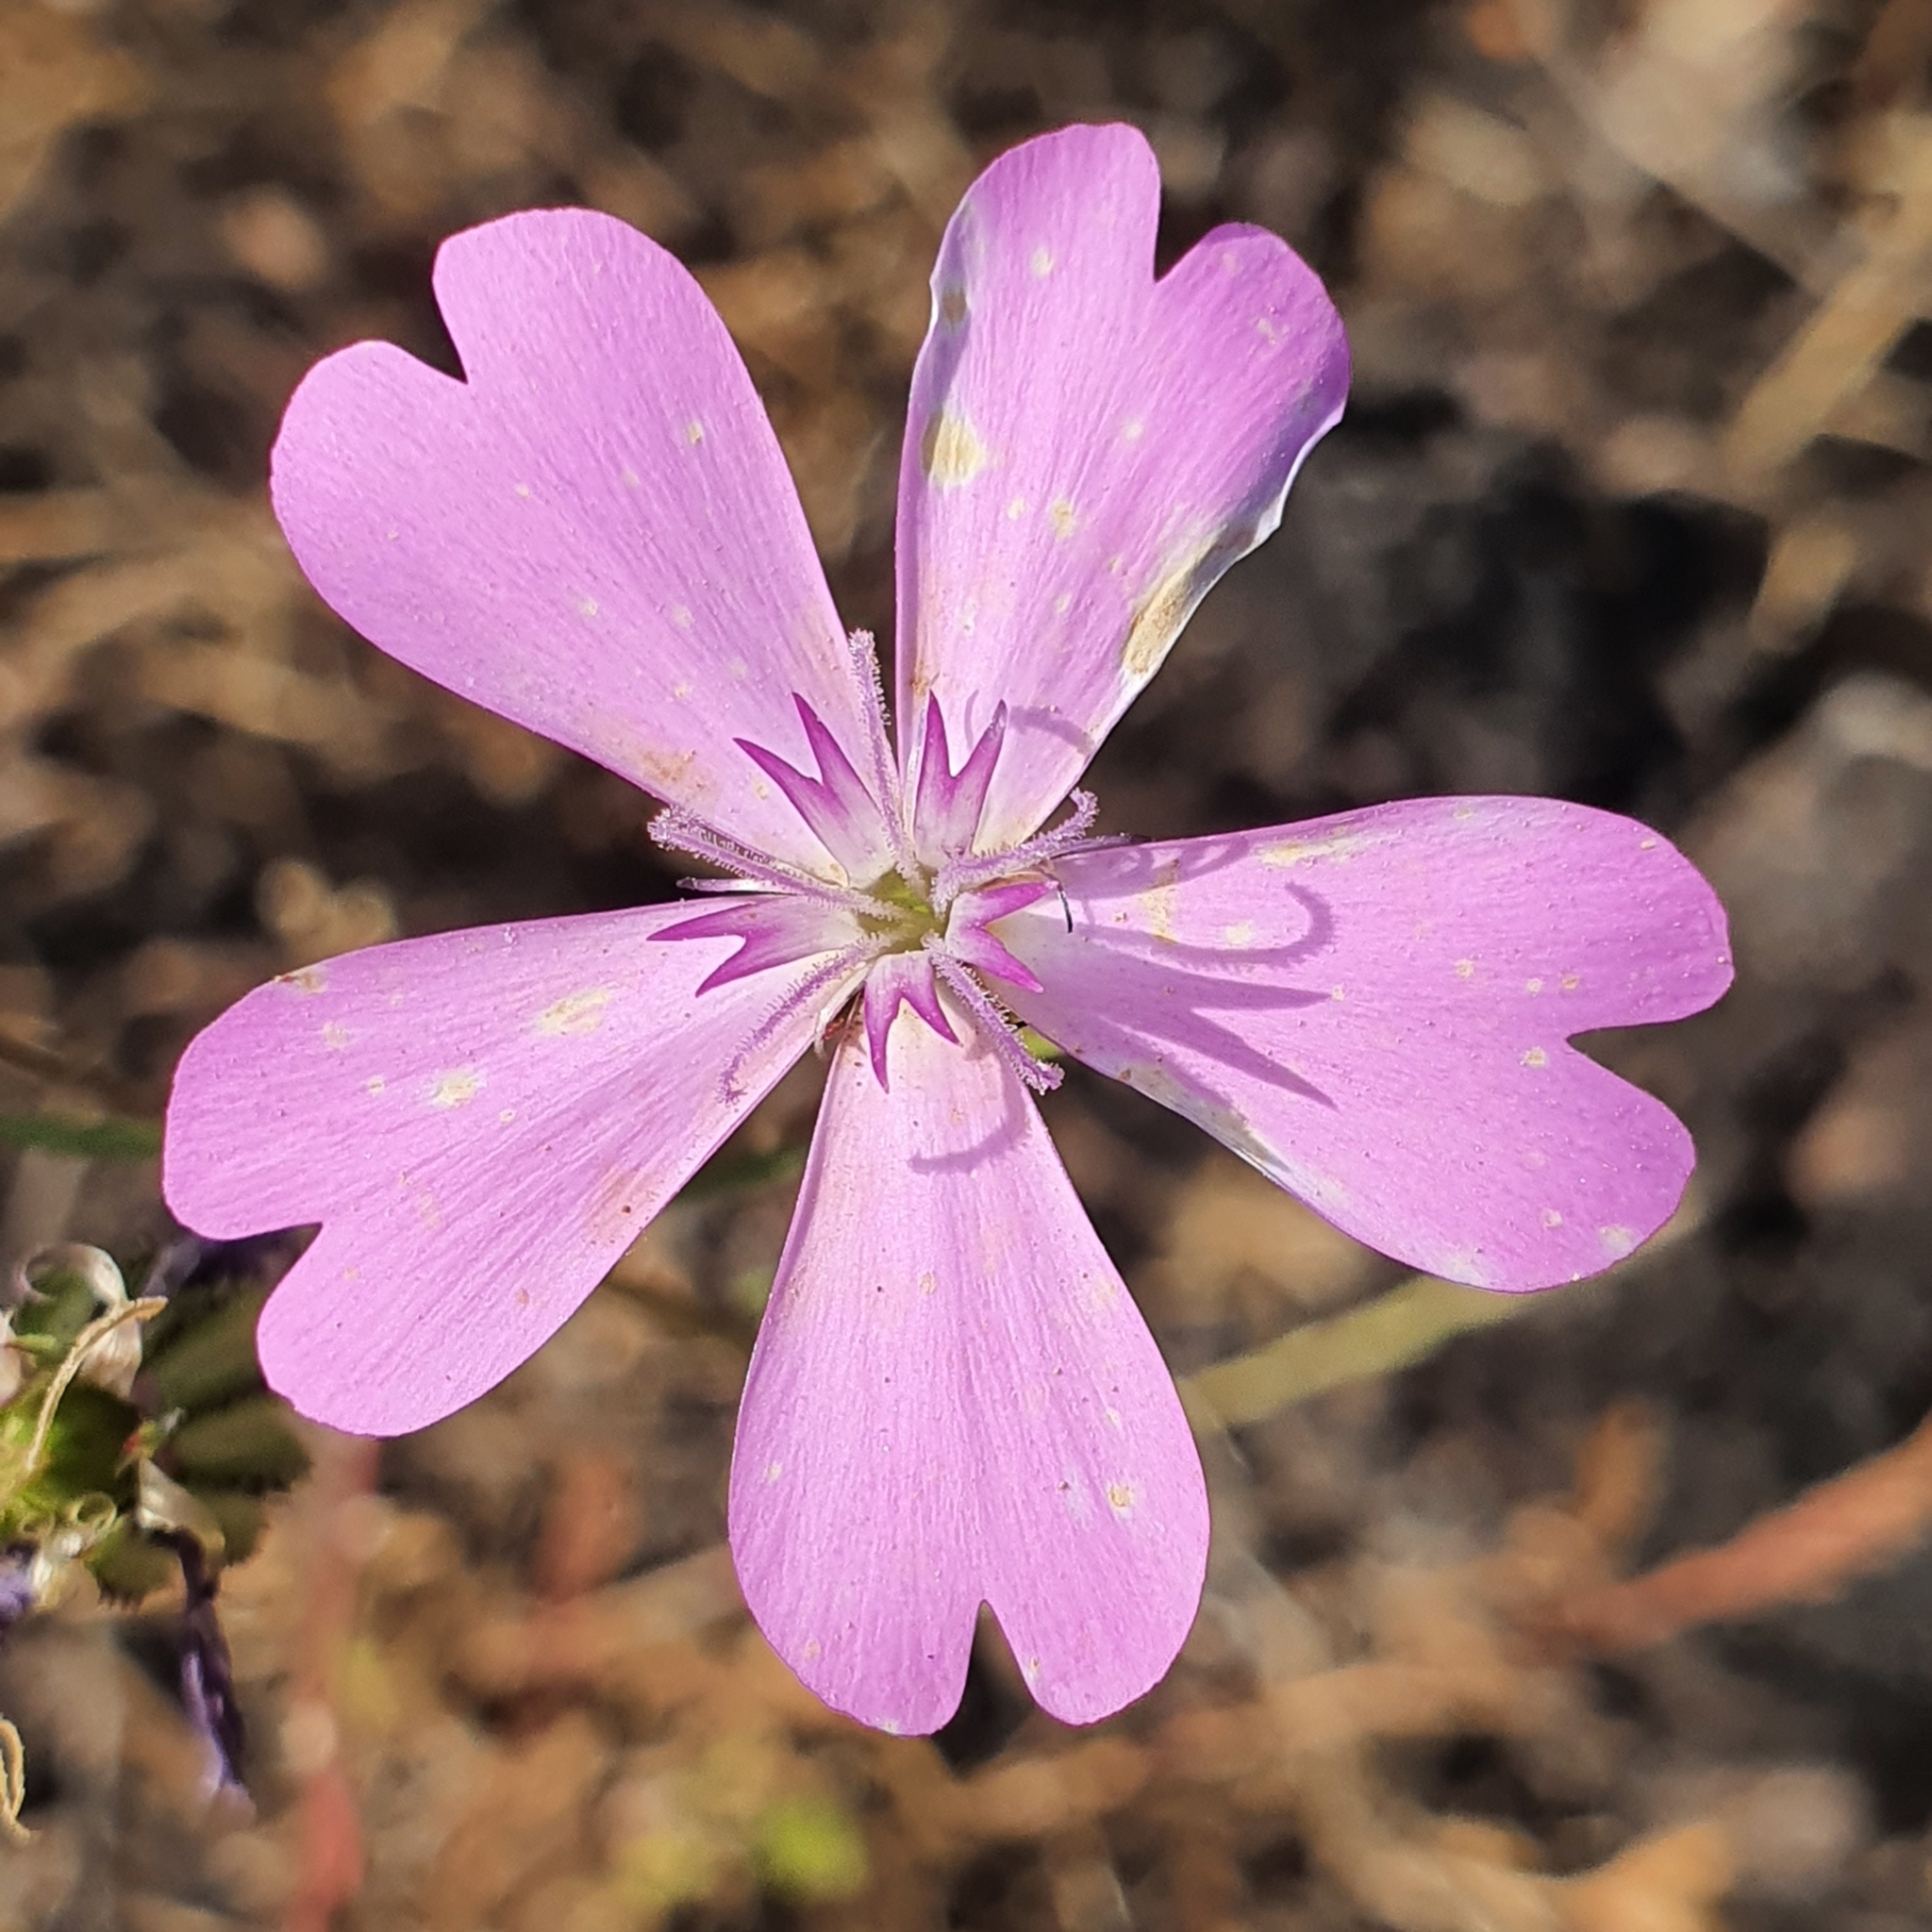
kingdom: Plantae
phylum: Tracheophyta
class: Magnoliopsida
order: Caryophyllales
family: Caryophyllaceae
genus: Eudianthe
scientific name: Eudianthe coeli-rosa
